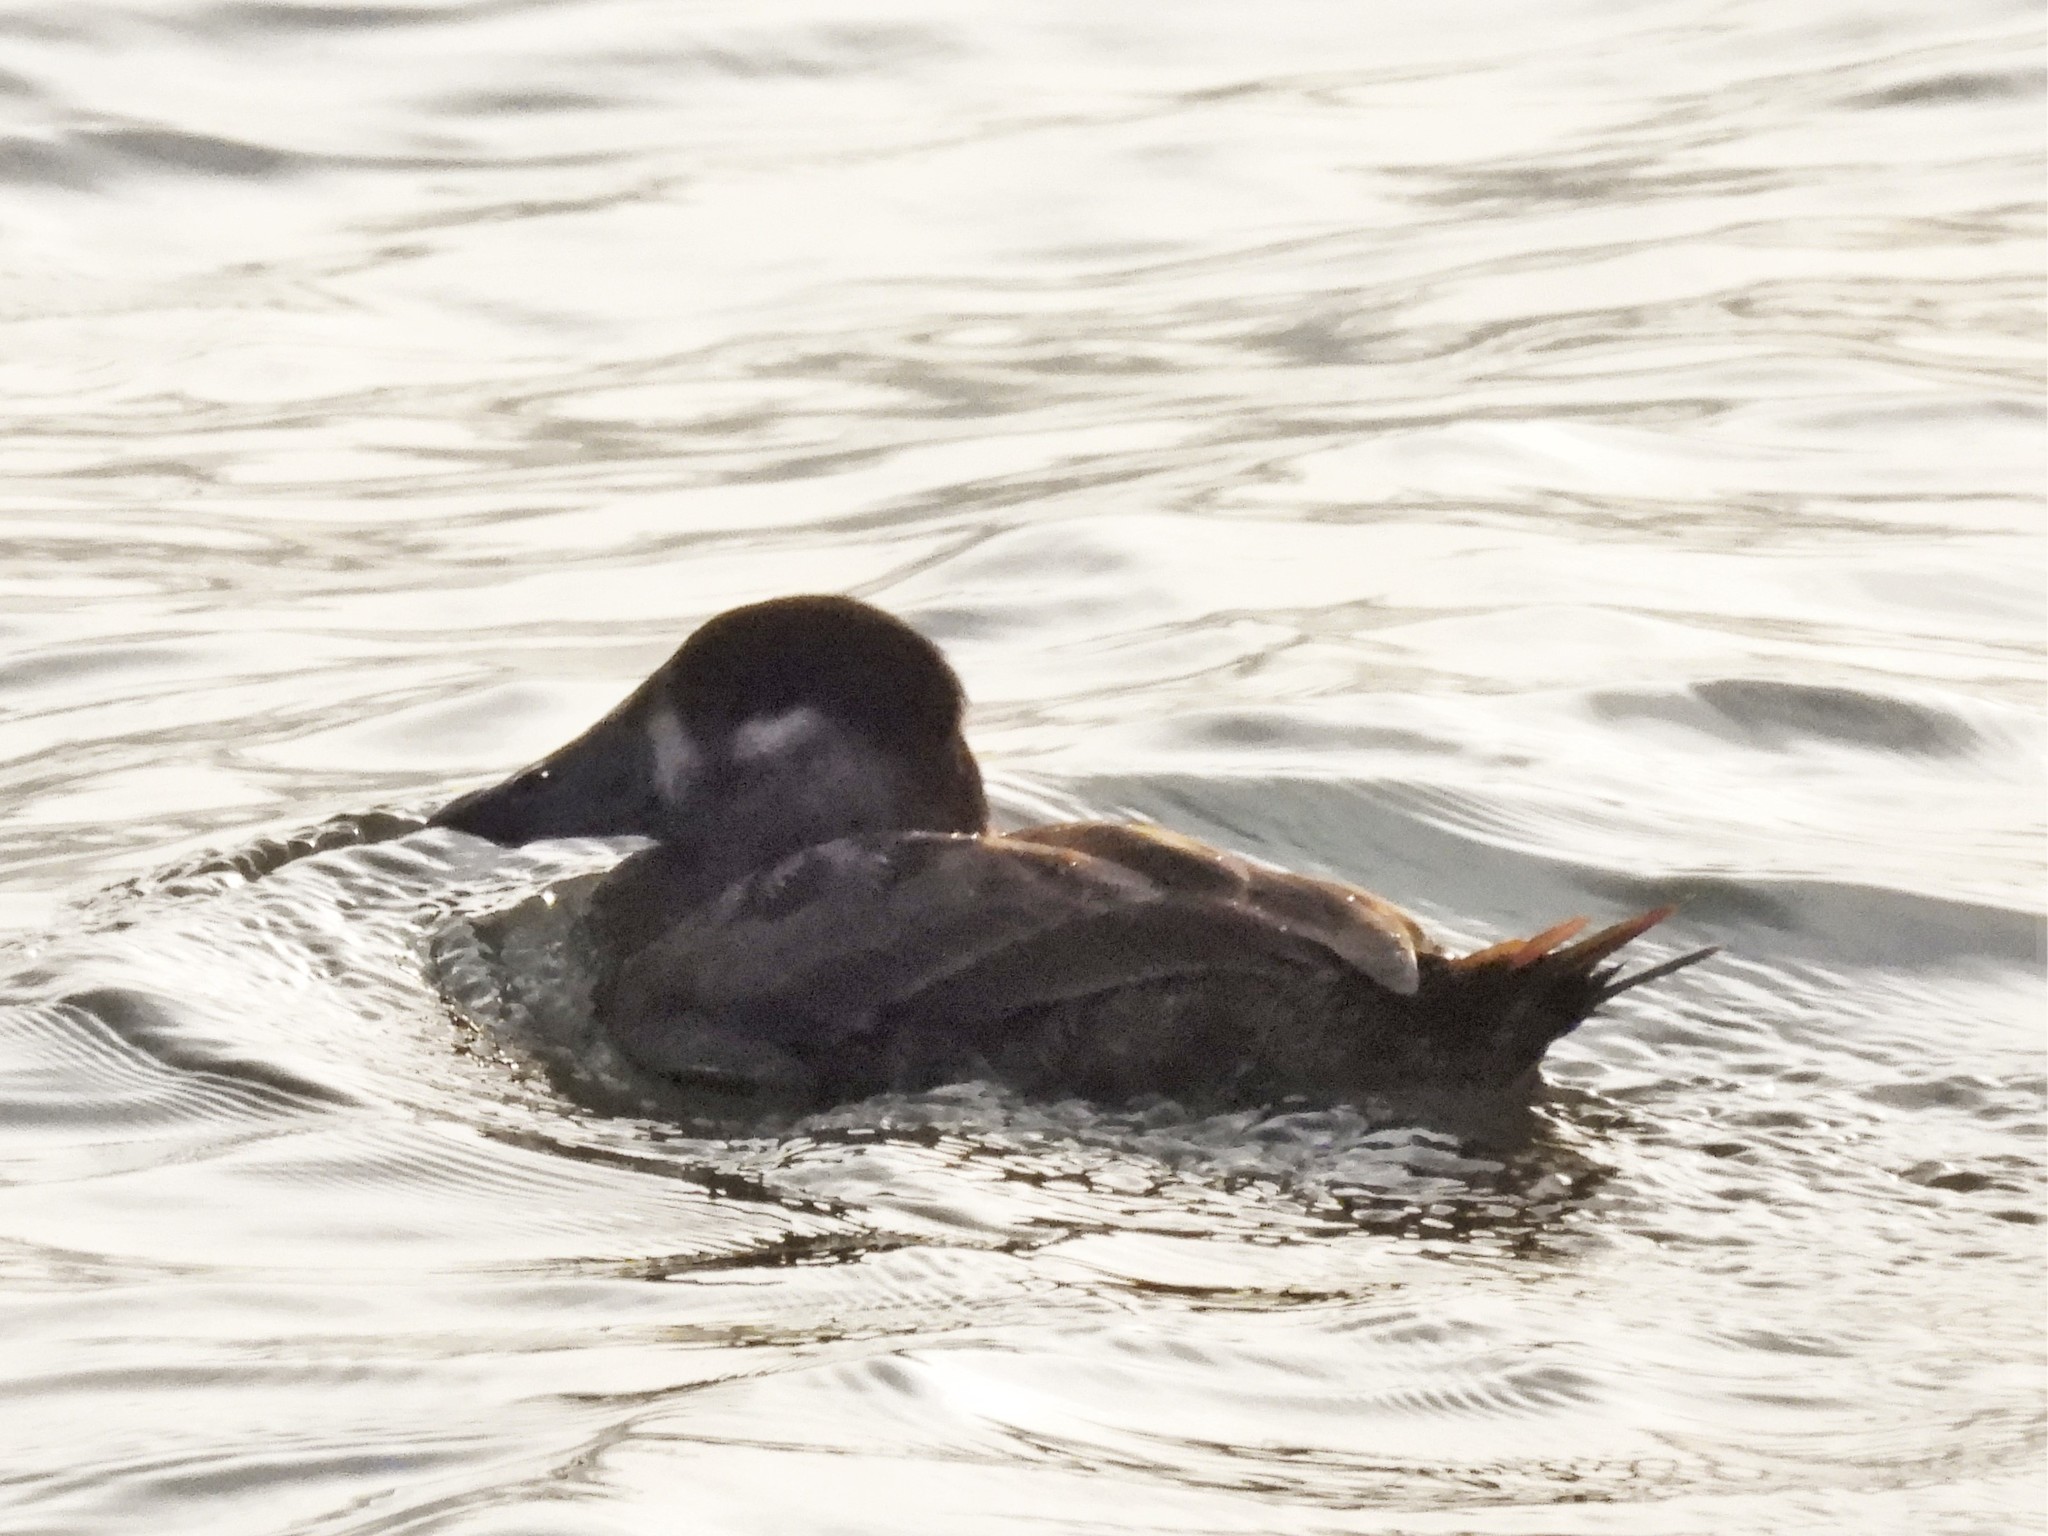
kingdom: Animalia
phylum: Chordata
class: Aves
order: Anseriformes
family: Anatidae
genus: Melanitta
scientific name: Melanitta perspicillata
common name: Surf scoter
